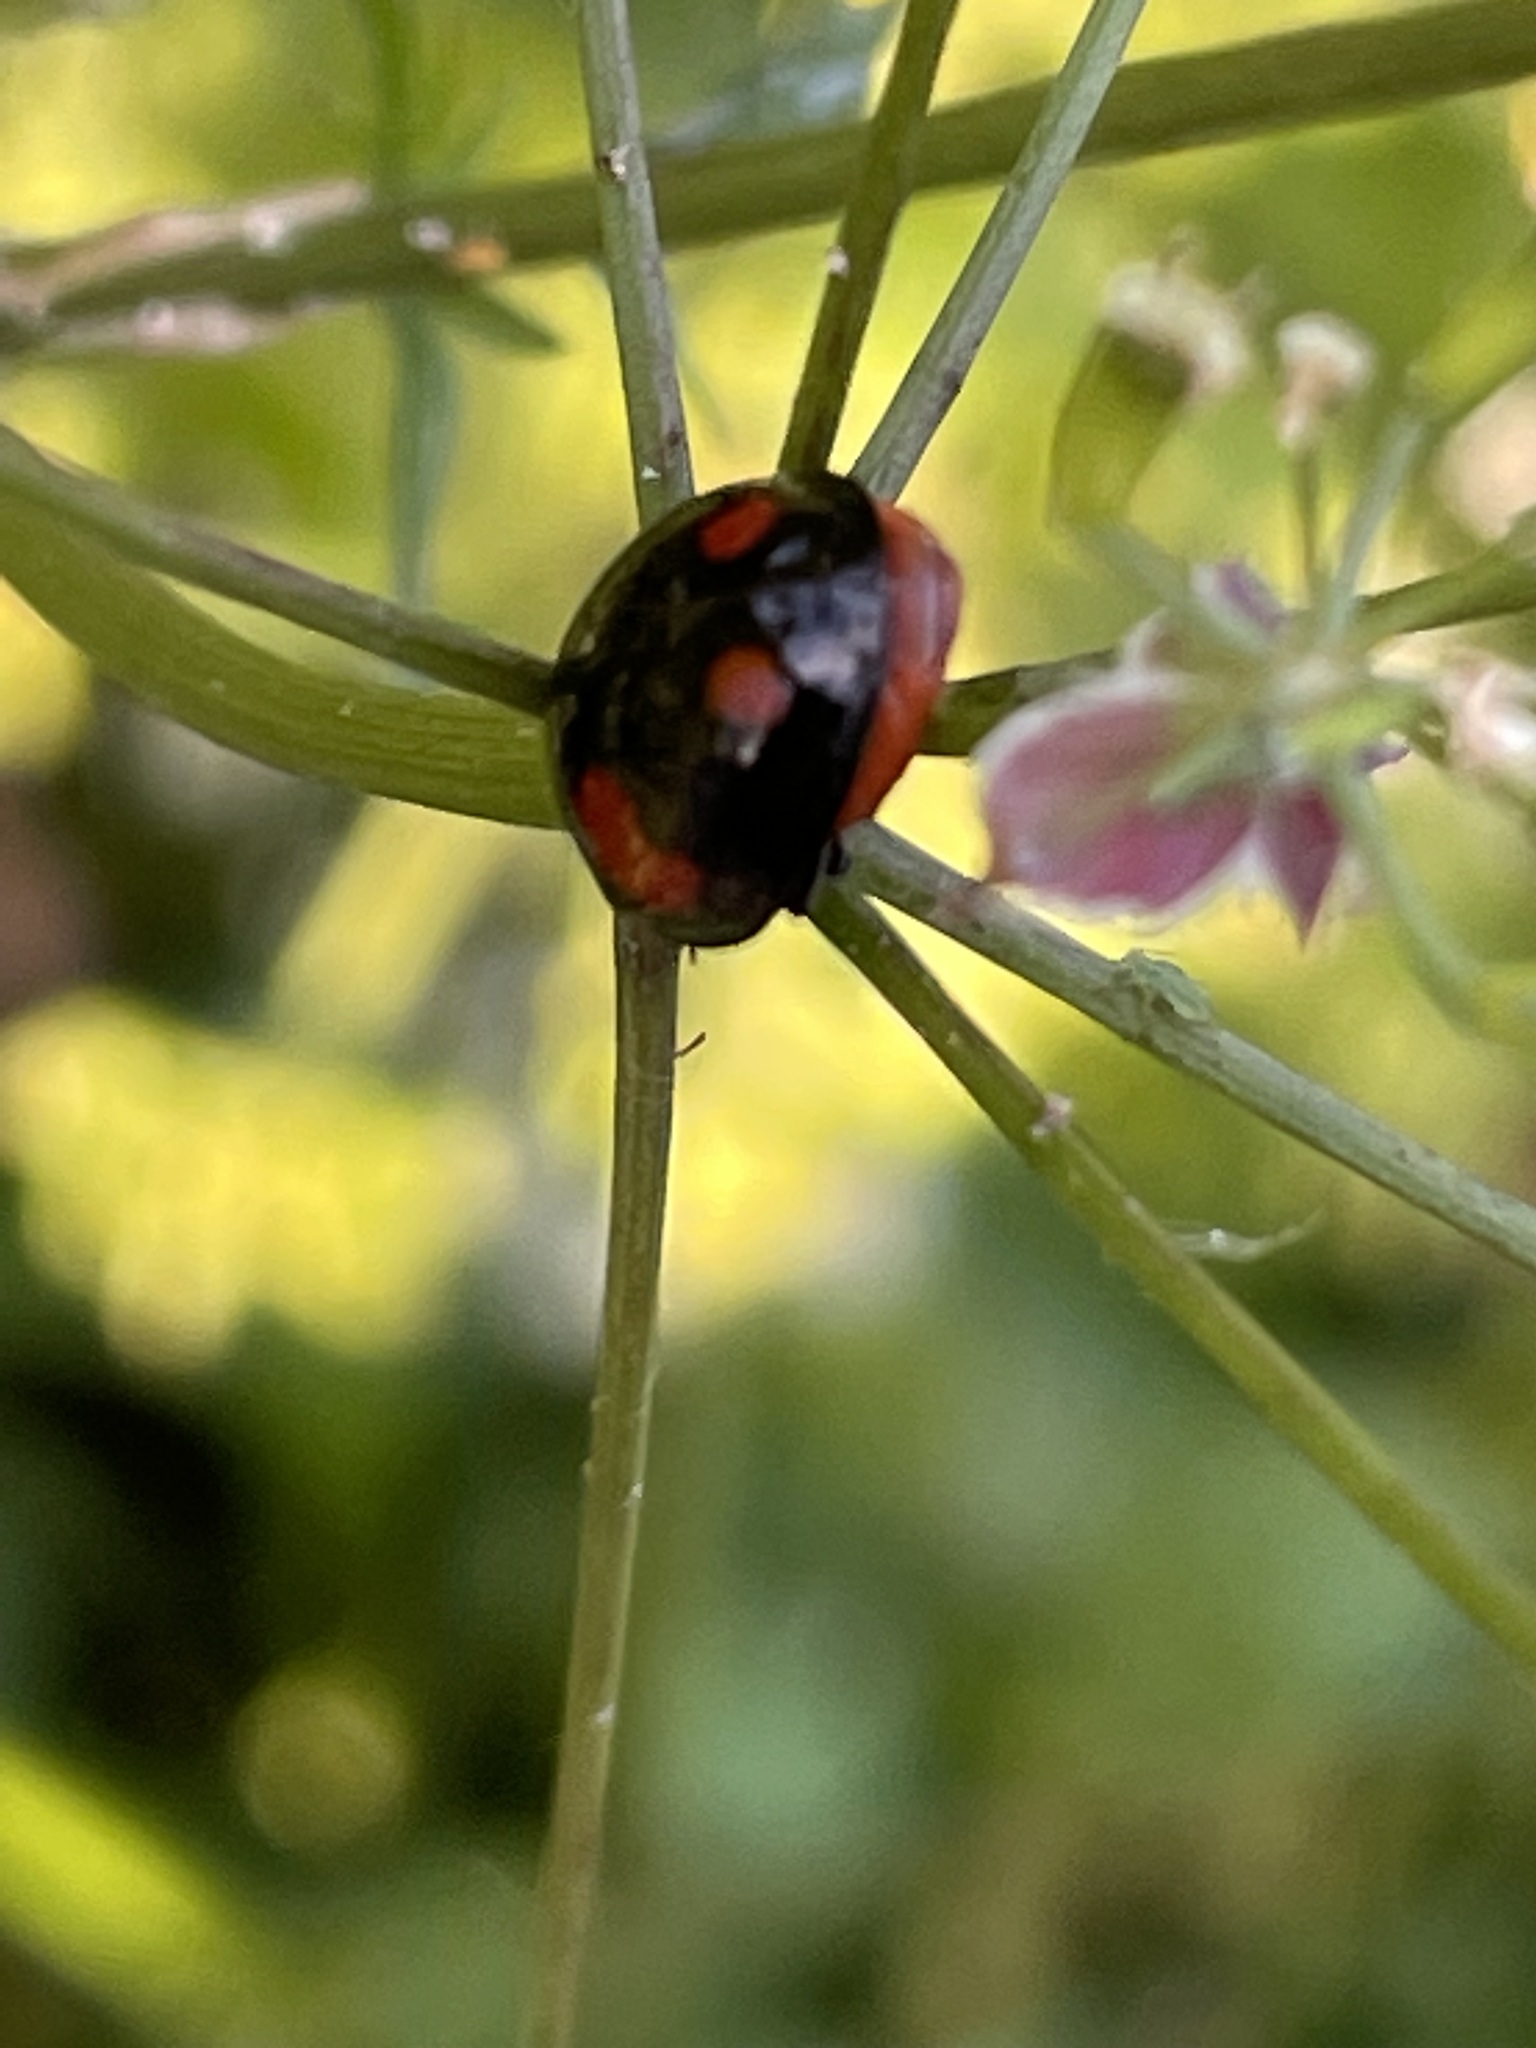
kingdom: Animalia
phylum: Arthropoda
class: Insecta
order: Coleoptera
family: Coccinellidae
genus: Harmonia
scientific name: Harmonia axyridis
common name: Harlequin ladybird
